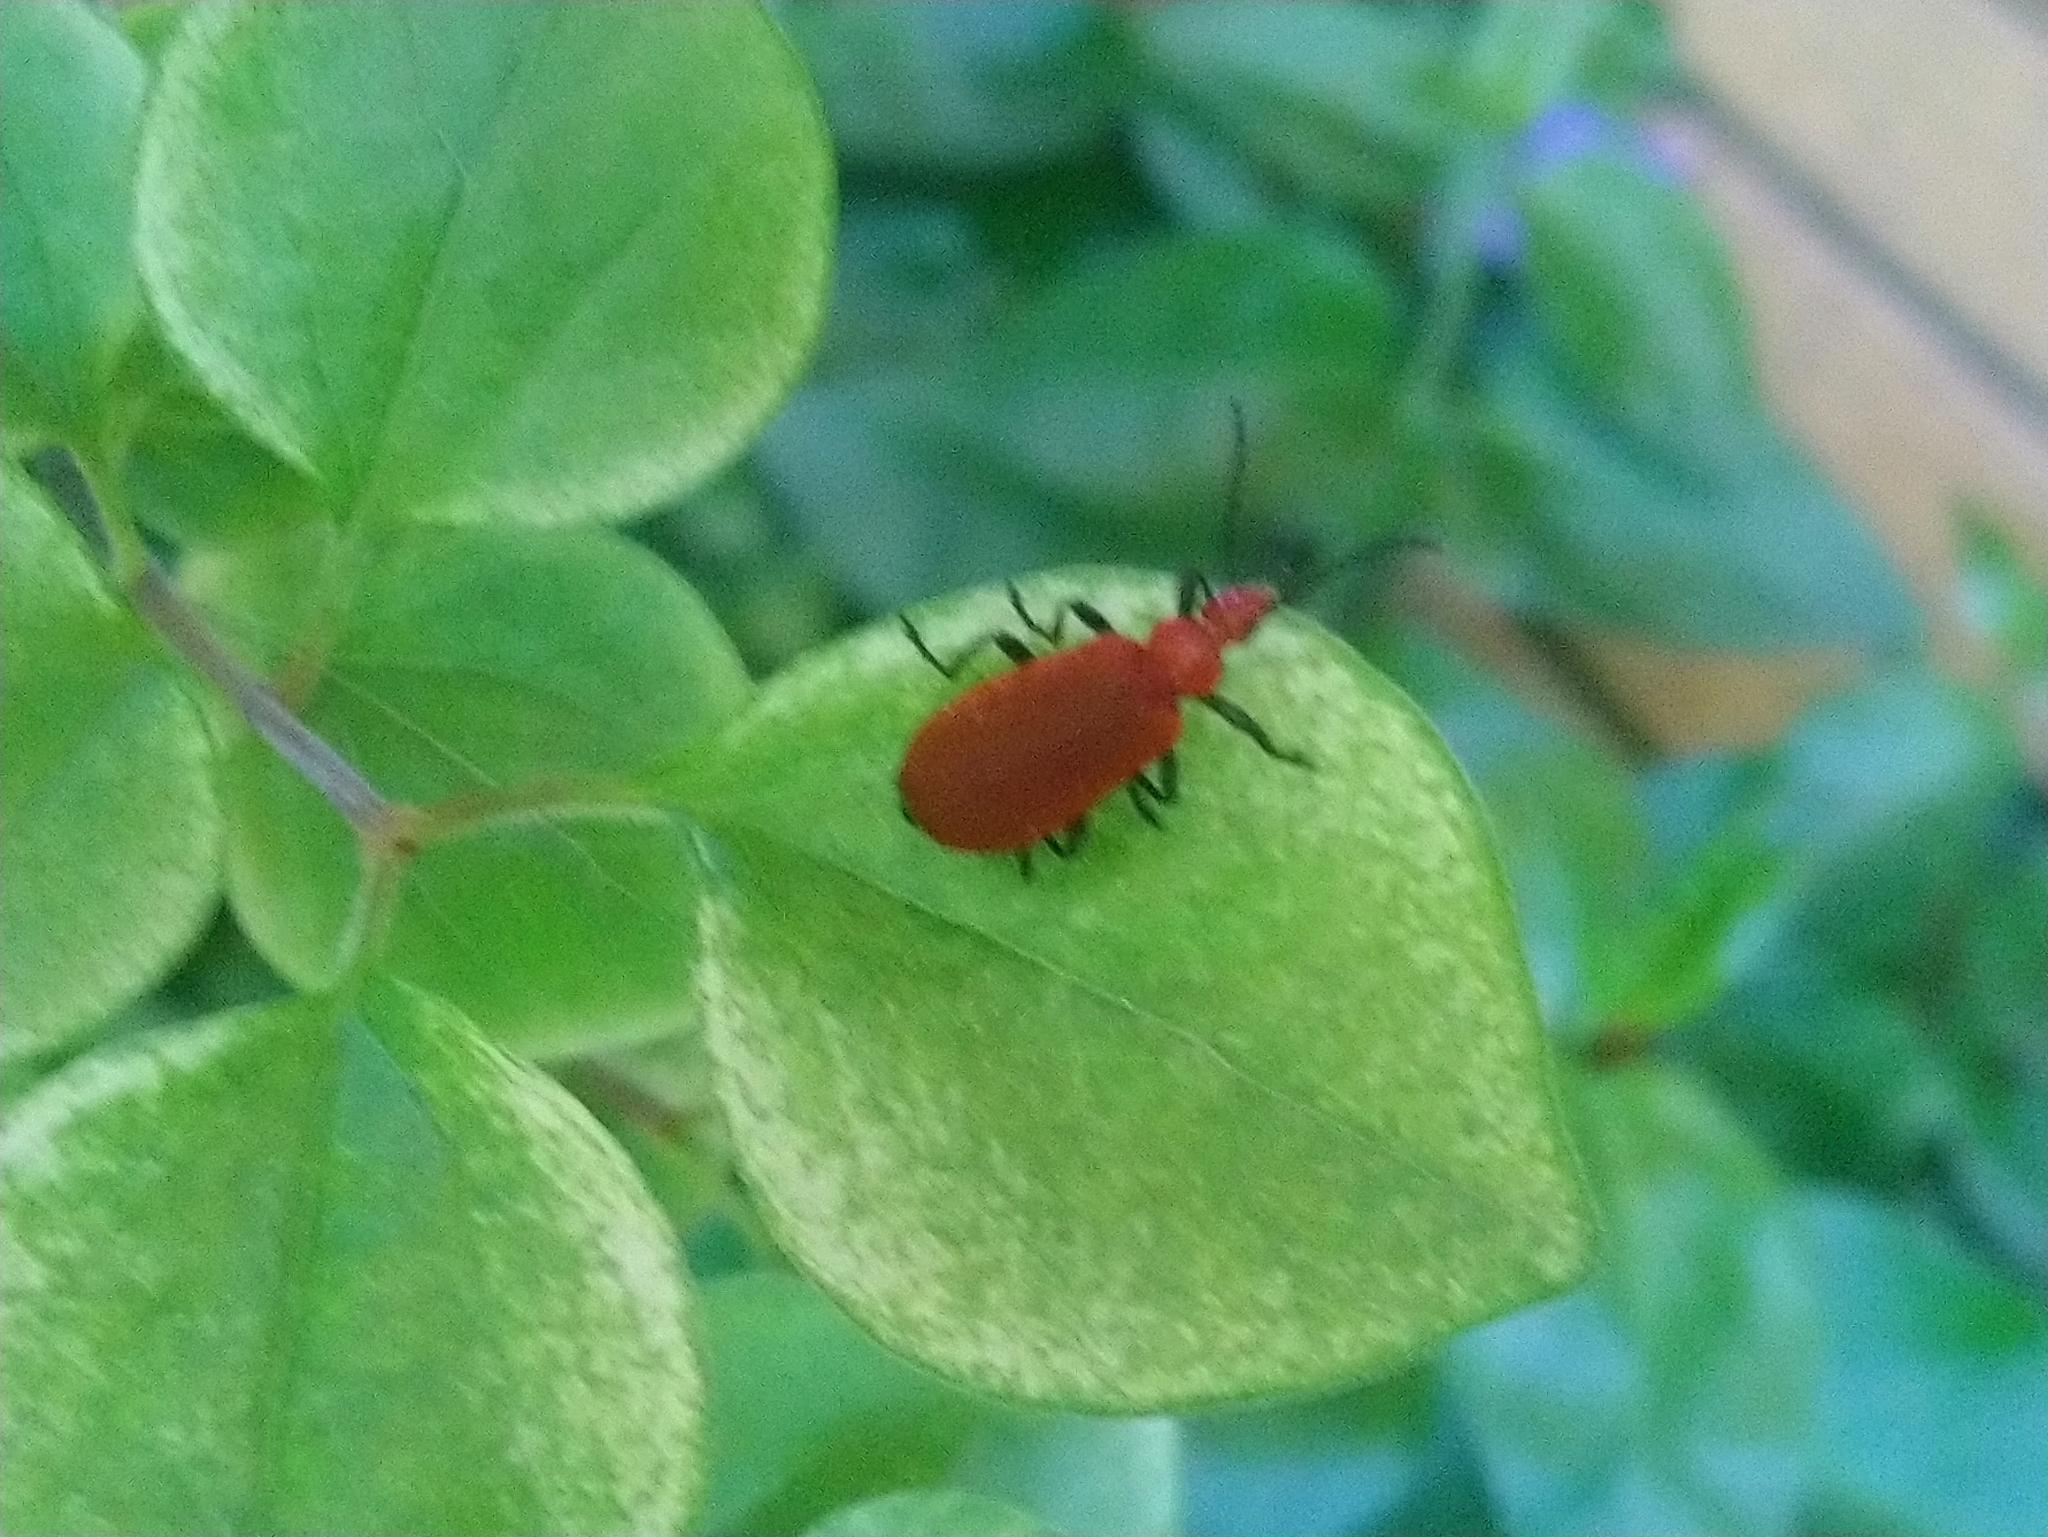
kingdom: Animalia
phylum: Arthropoda
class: Insecta
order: Coleoptera
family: Pyrochroidae
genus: Pyrochroa
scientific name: Pyrochroa serraticornis
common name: Red-headed cardinal beetle
